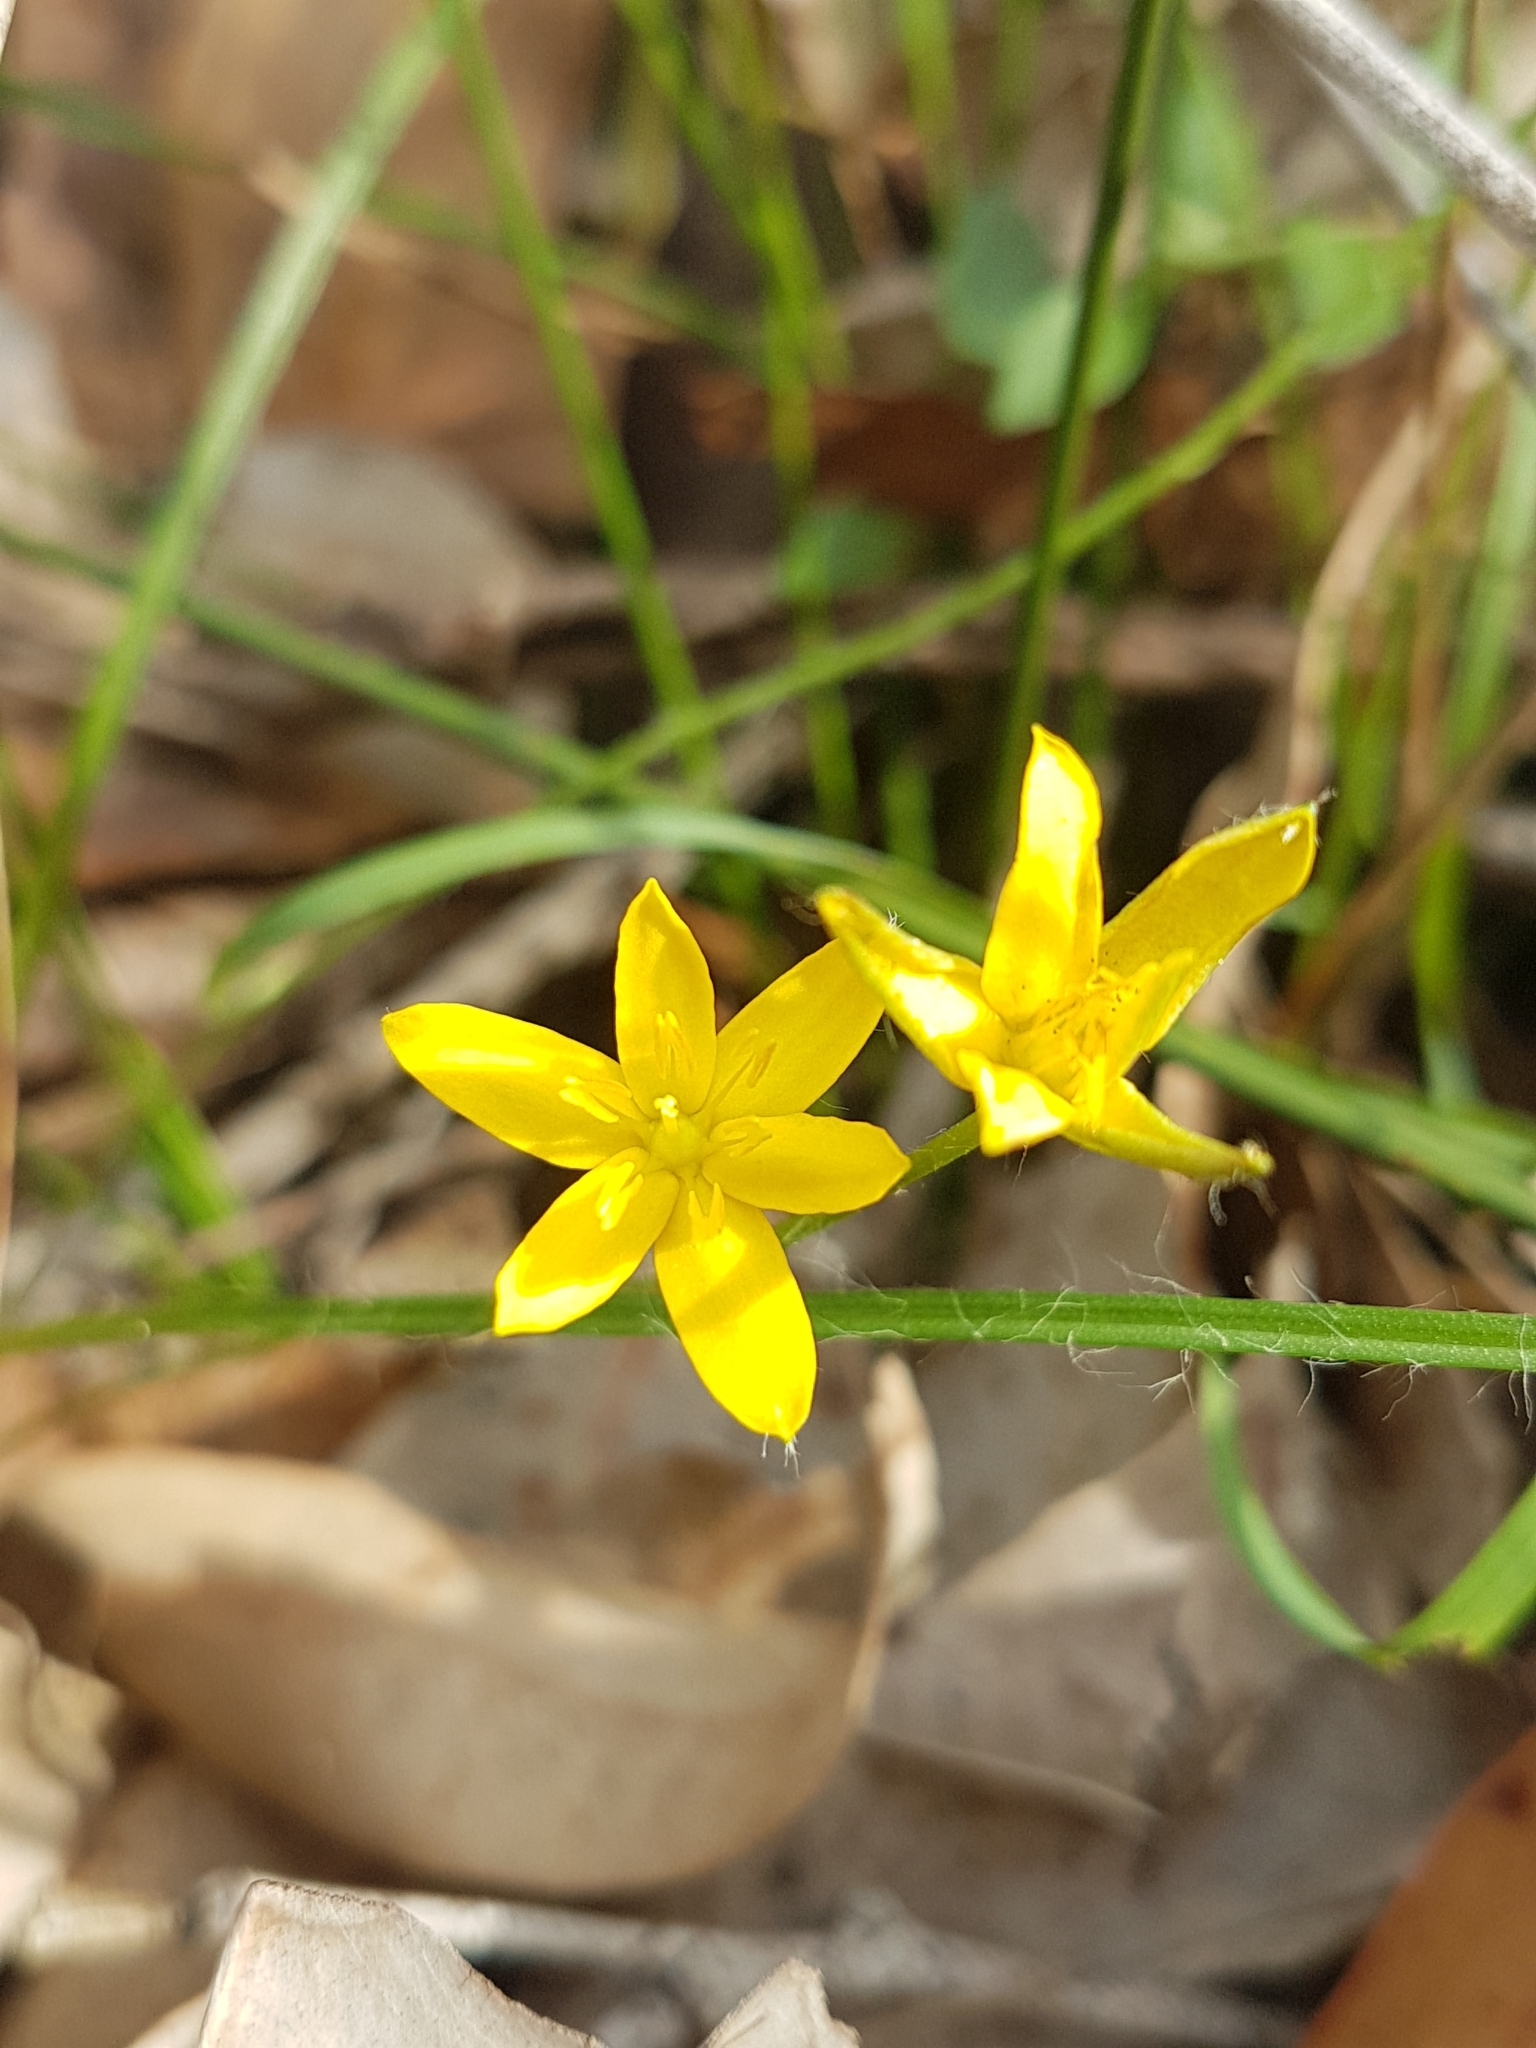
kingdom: Plantae
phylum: Tracheophyta
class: Liliopsida
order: Asparagales
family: Hypoxidaceae
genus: Hypoxis
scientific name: Hypoxis hygrometrica
